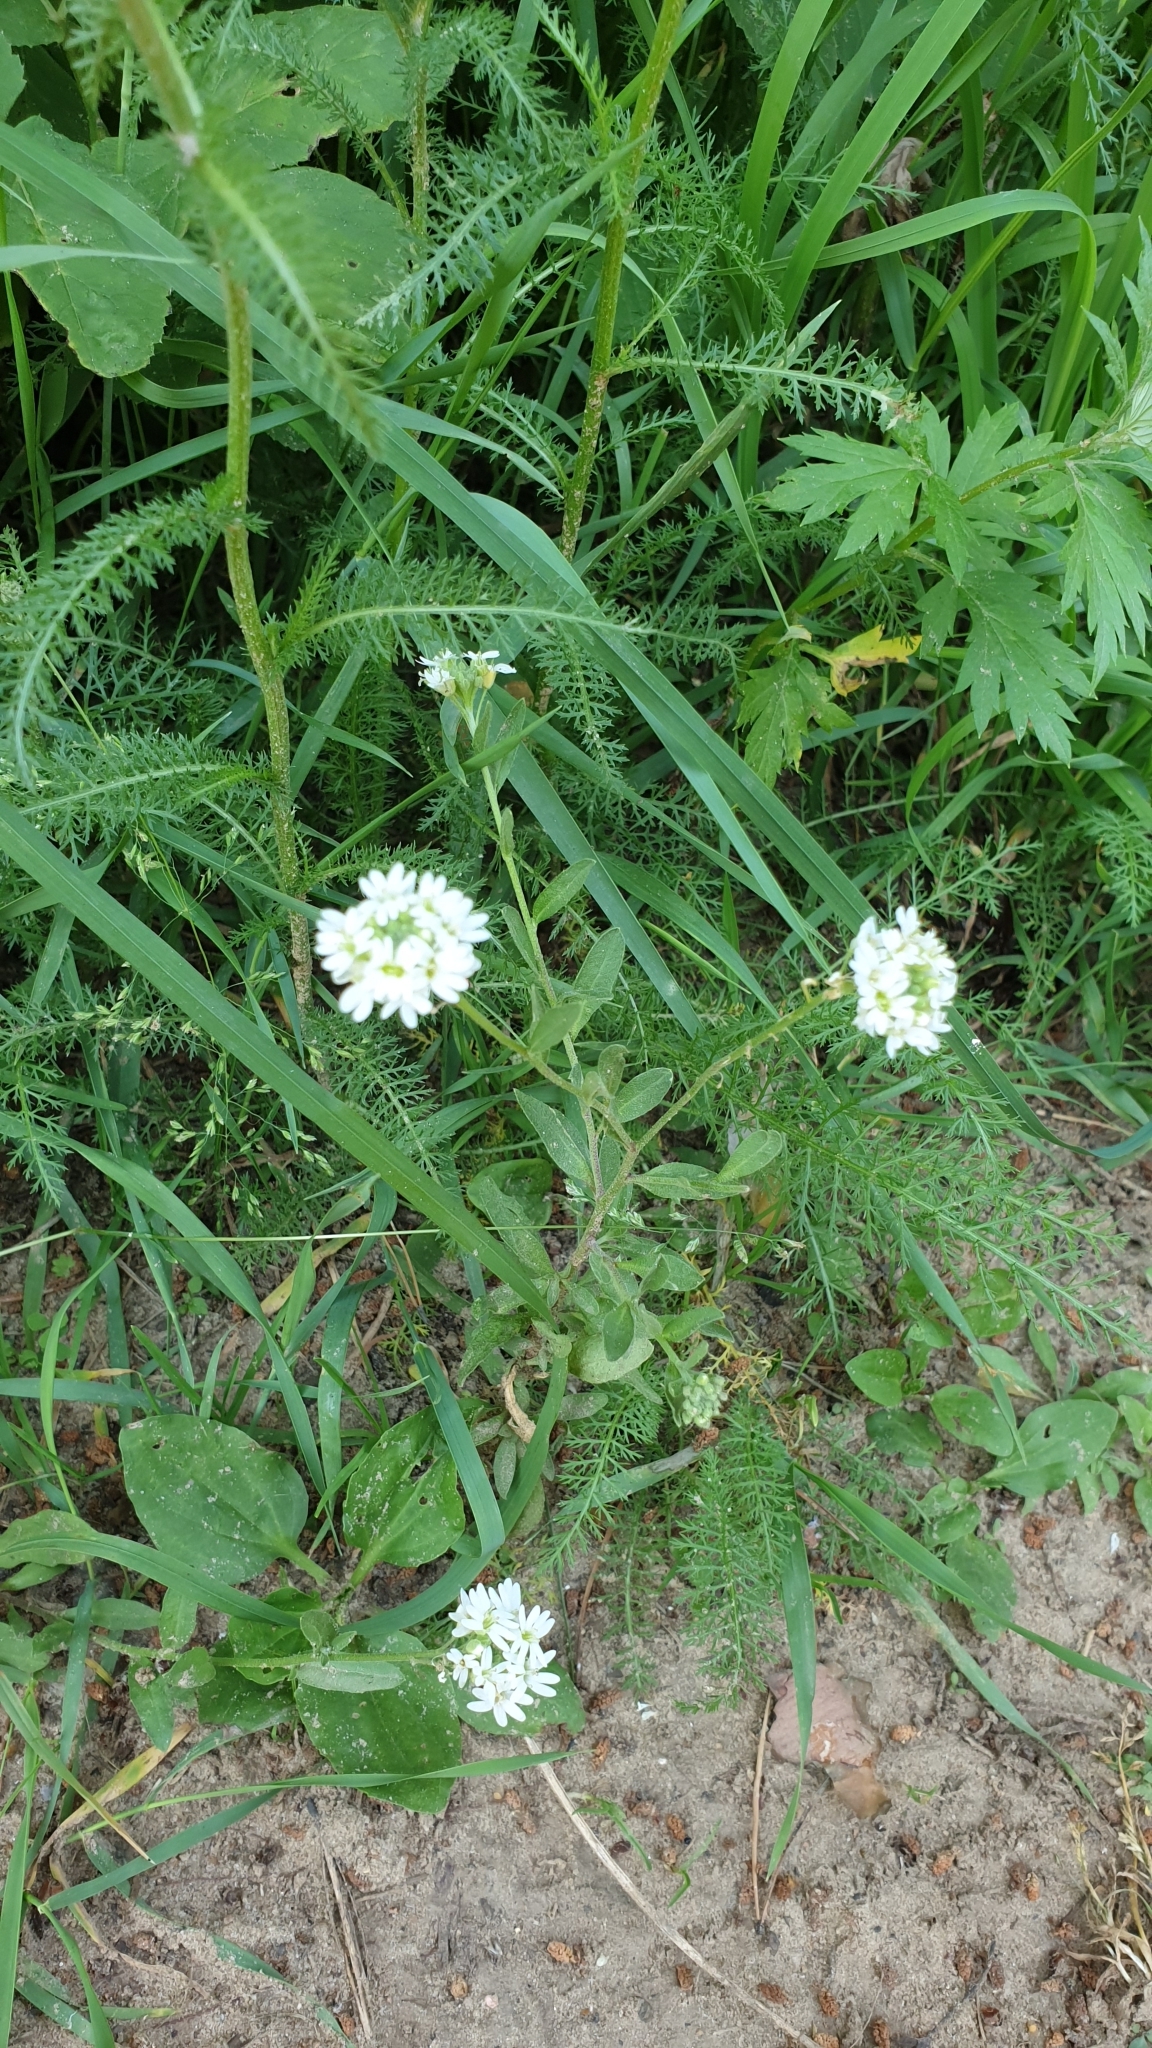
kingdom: Plantae
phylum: Tracheophyta
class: Magnoliopsida
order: Brassicales
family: Brassicaceae
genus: Berteroa
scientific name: Berteroa incana
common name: Hoary alison
